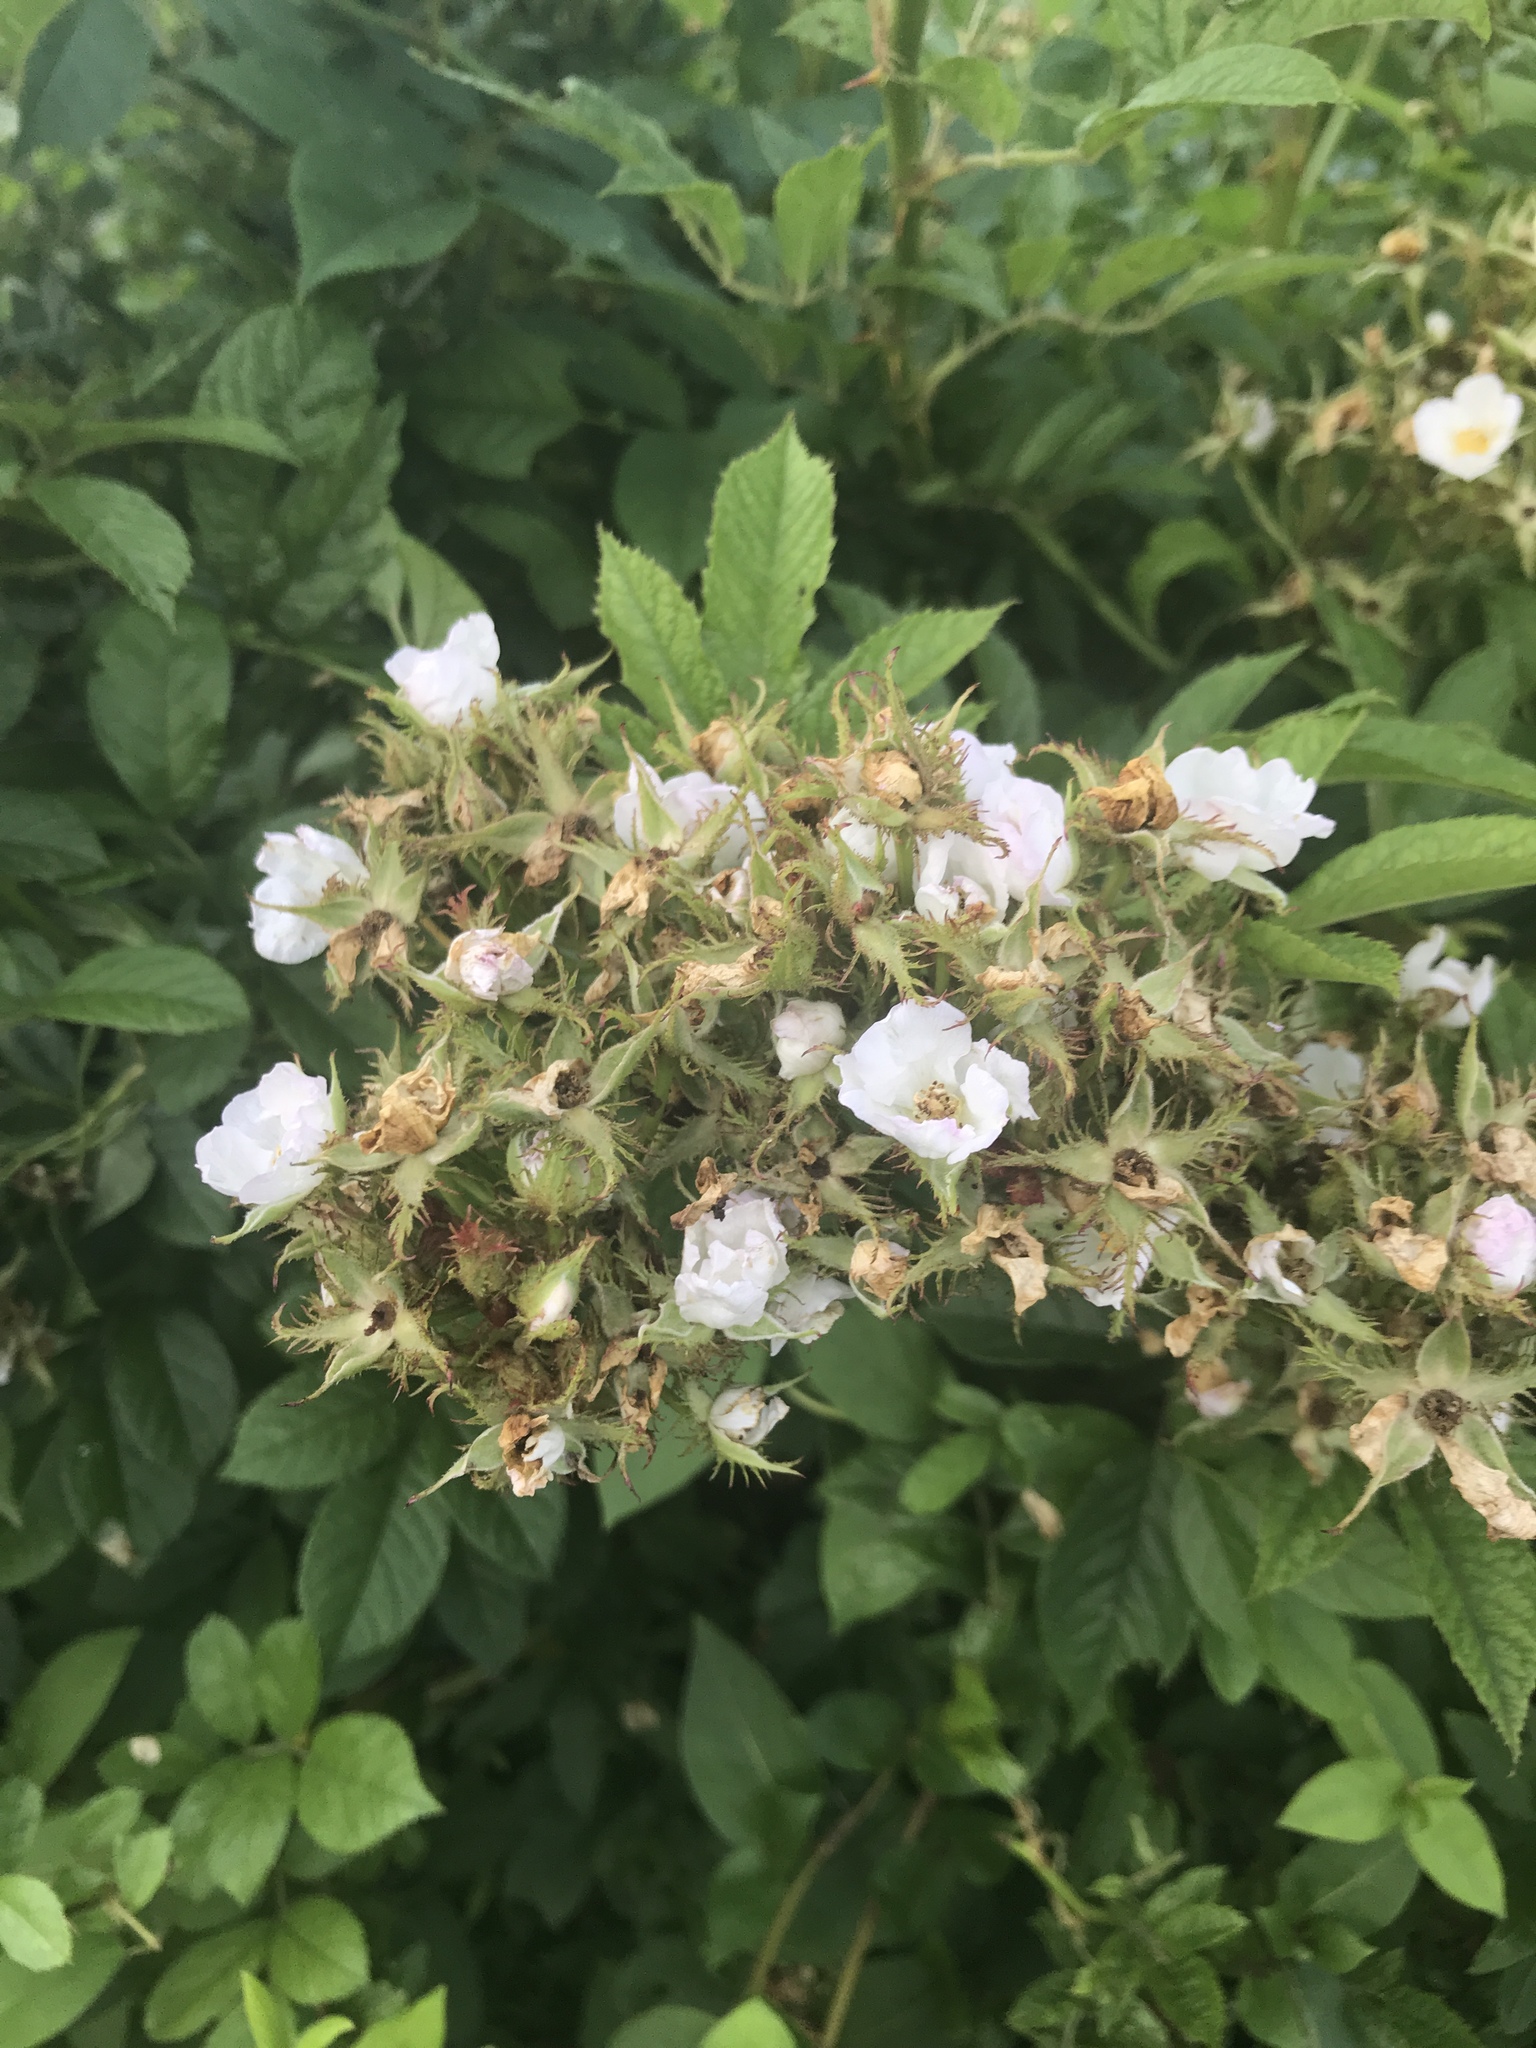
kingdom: Plantae
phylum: Tracheophyta
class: Magnoliopsida
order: Rosales
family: Rosaceae
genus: Rosa
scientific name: Rosa multiflora
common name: Multiflora rose
